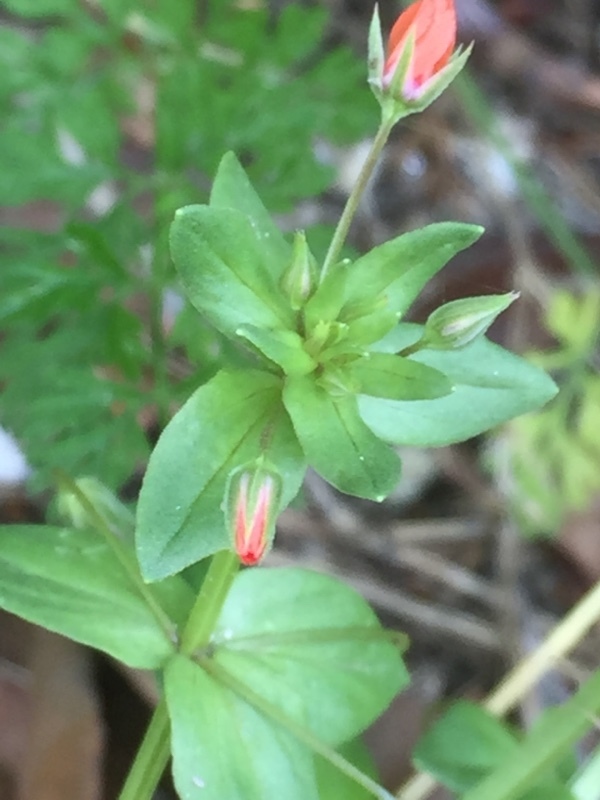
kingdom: Plantae
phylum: Tracheophyta
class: Magnoliopsida
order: Ericales
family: Primulaceae
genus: Lysimachia
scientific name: Lysimachia arvensis
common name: Scarlet pimpernel
